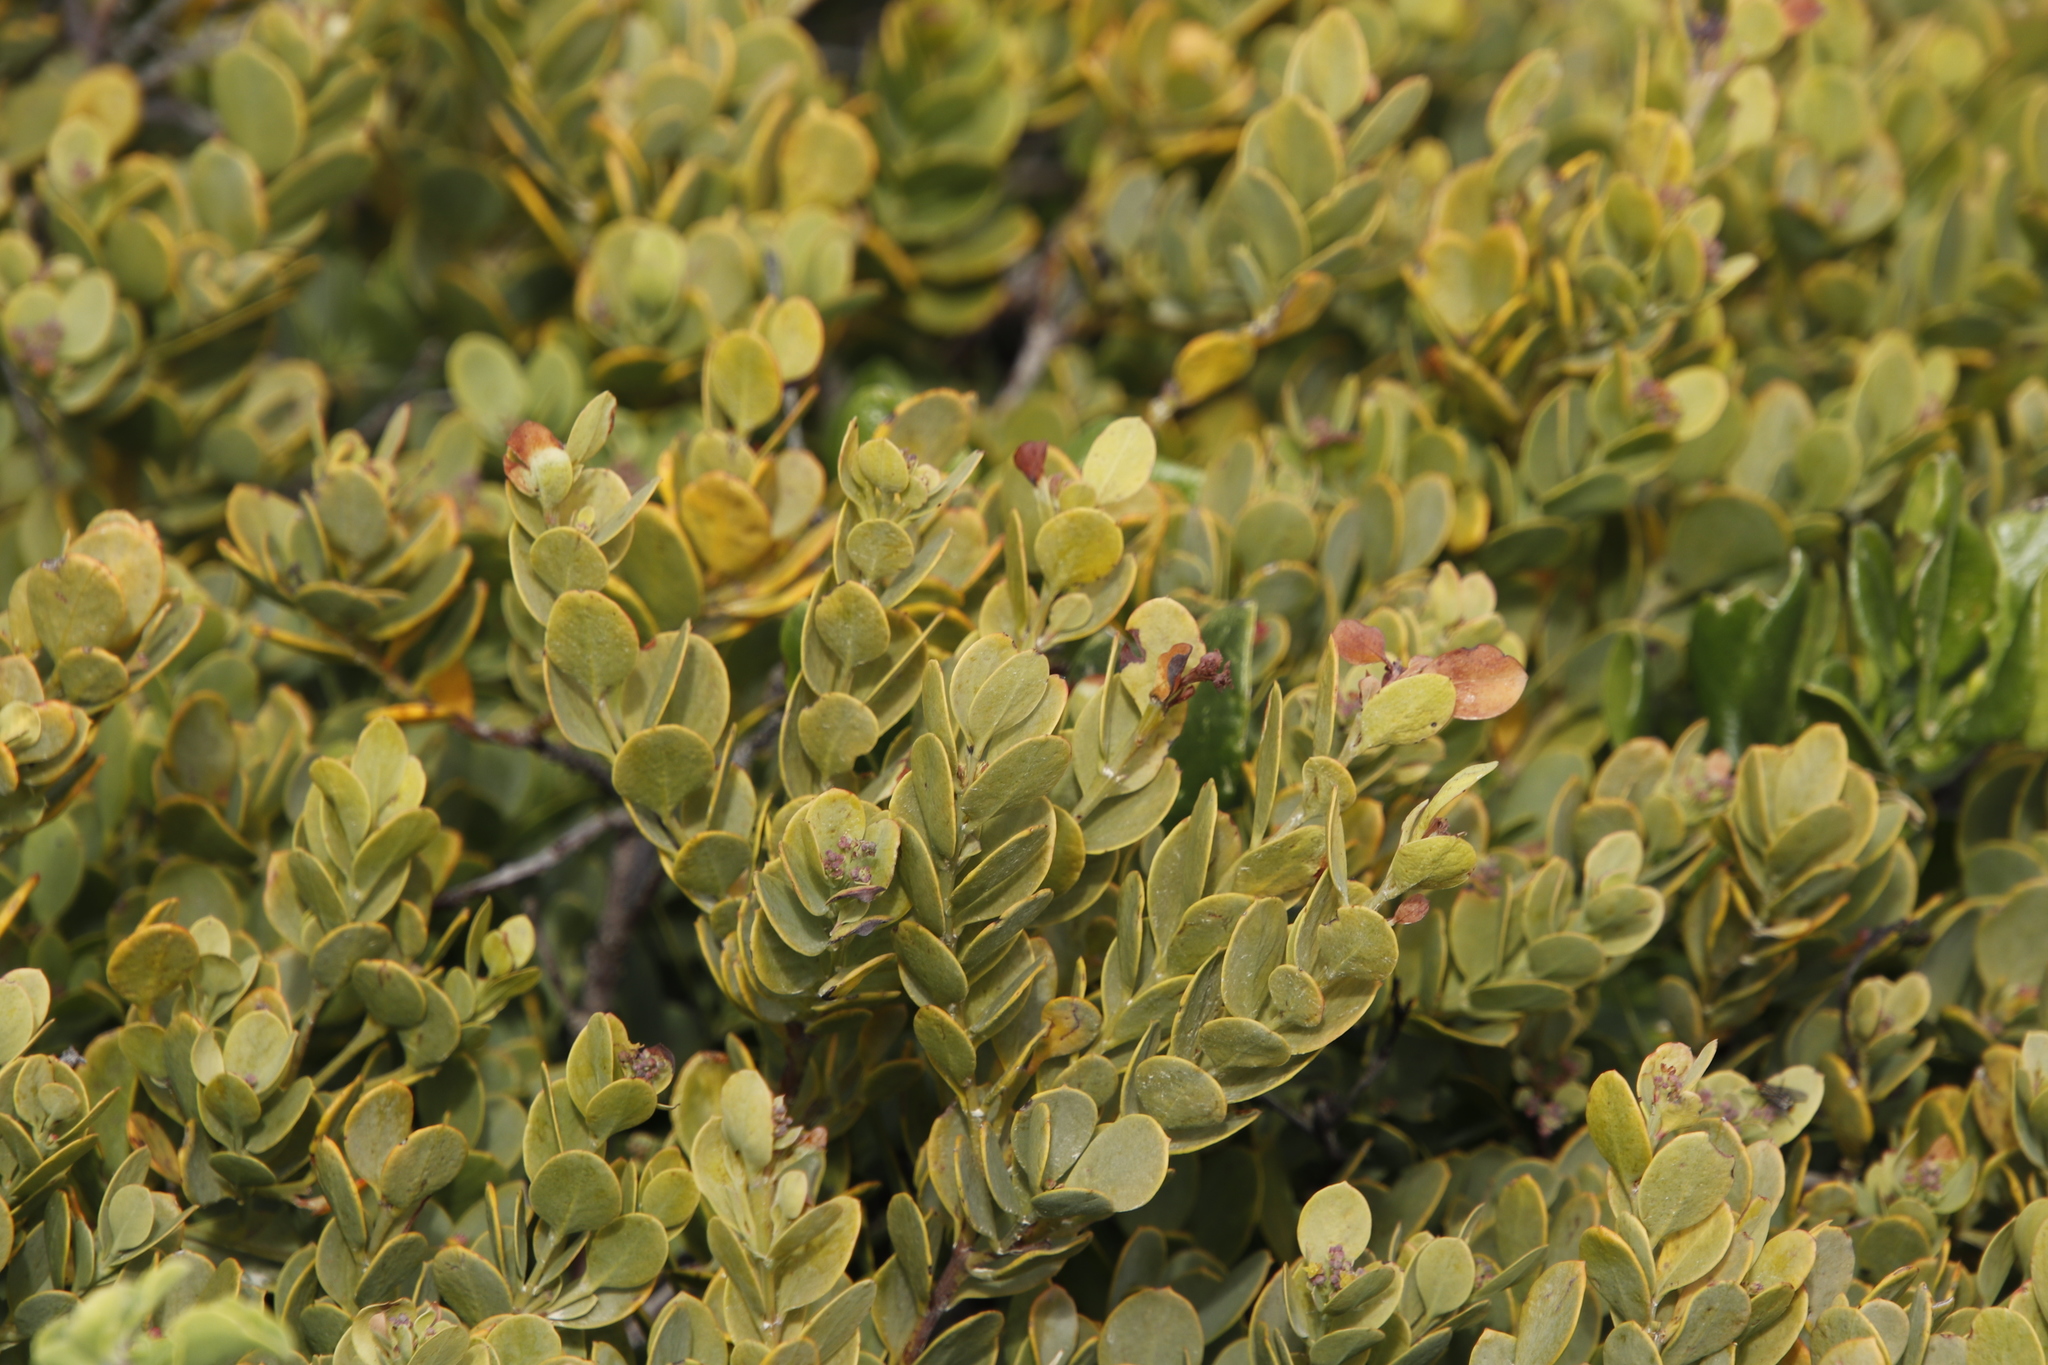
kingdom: Plantae
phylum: Tracheophyta
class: Magnoliopsida
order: Santalales
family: Santalaceae
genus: Osyris
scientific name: Osyris compressa
